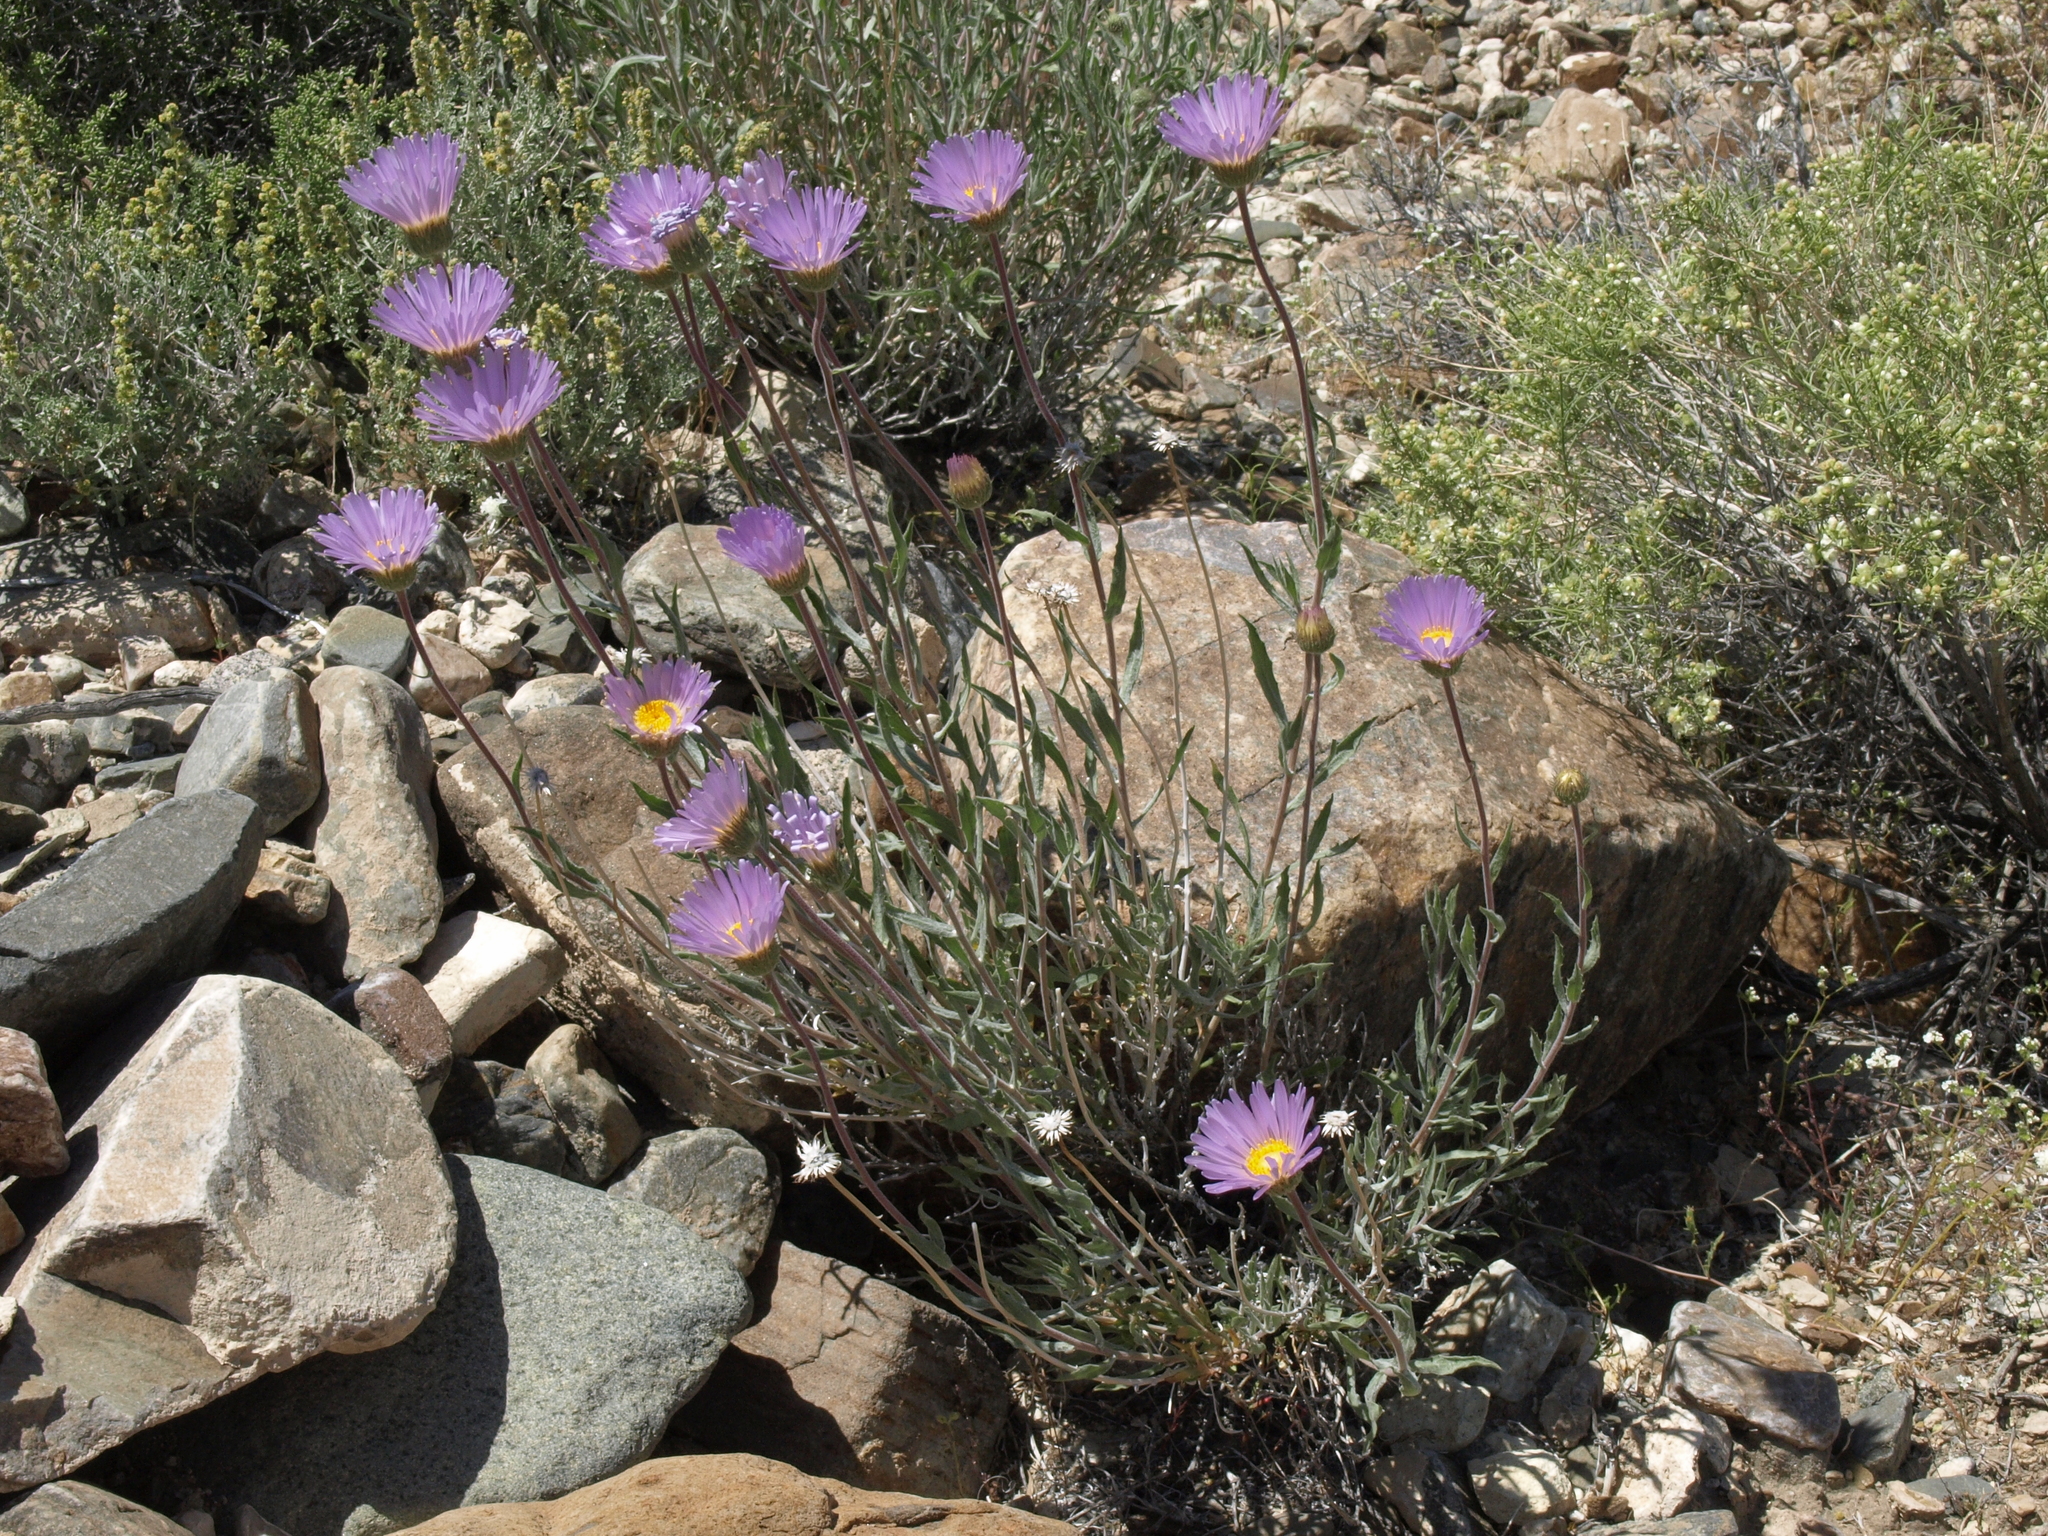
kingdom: Plantae
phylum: Tracheophyta
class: Magnoliopsida
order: Asterales
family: Asteraceae
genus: Xylorhiza
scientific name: Xylorhiza tortifolia
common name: Hurt-leaf woody-aster
